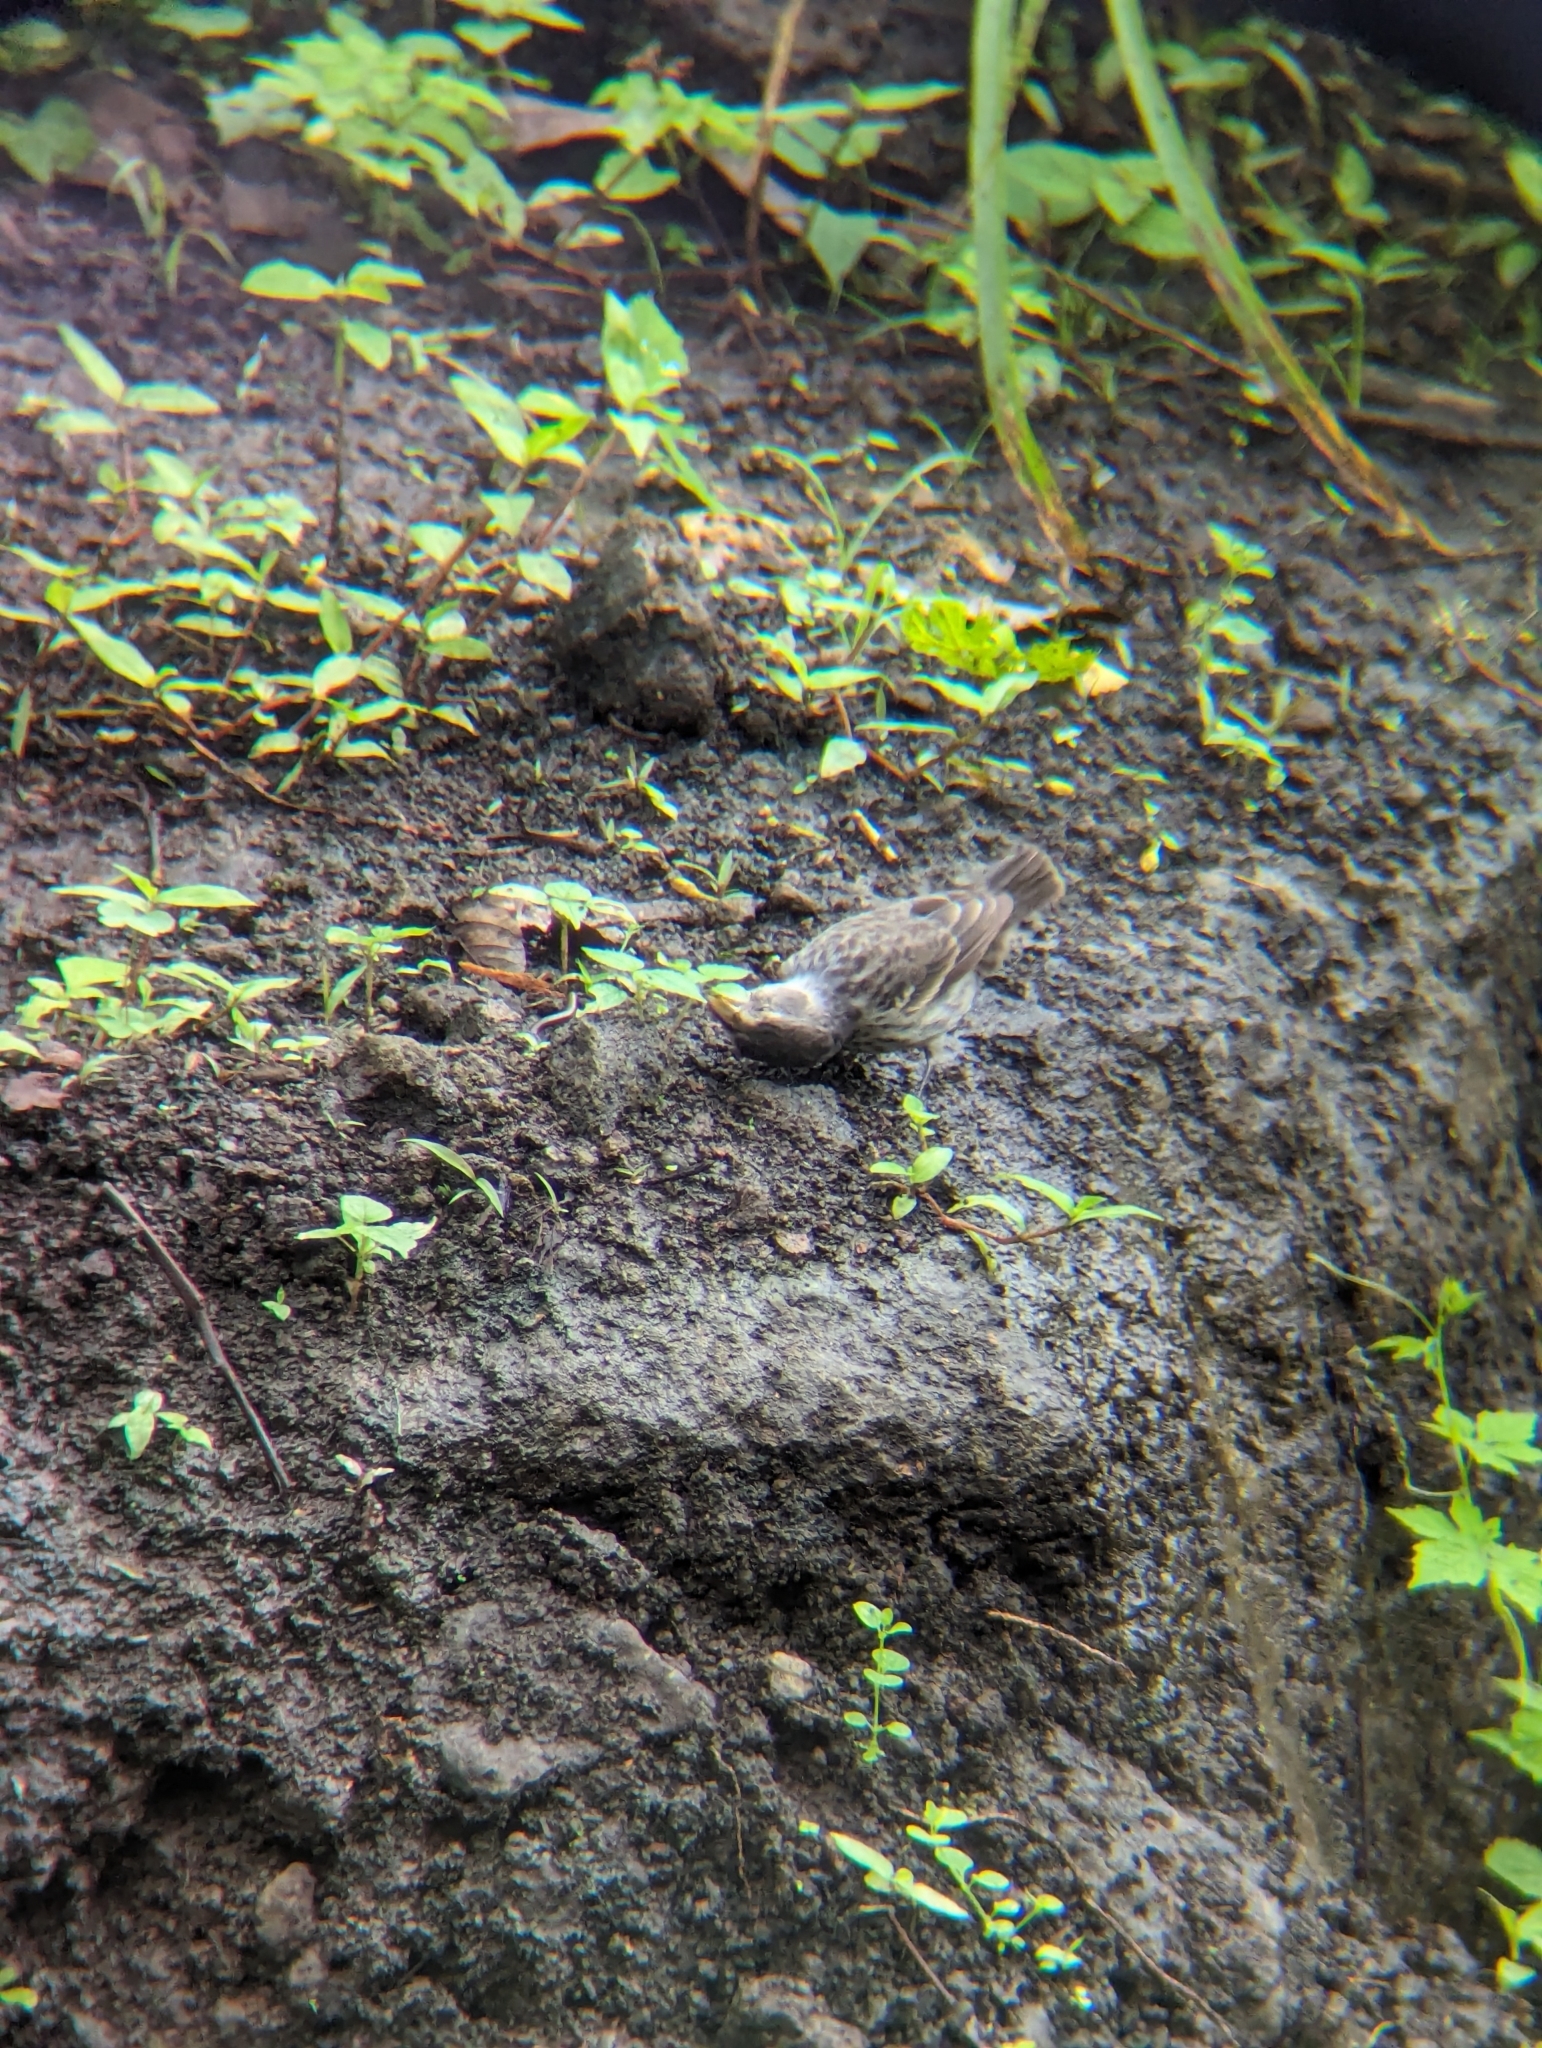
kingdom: Animalia
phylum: Chordata
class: Aves
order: Passeriformes
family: Thraupidae
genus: Geospiza
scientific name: Geospiza fortis
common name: Medium ground finch
